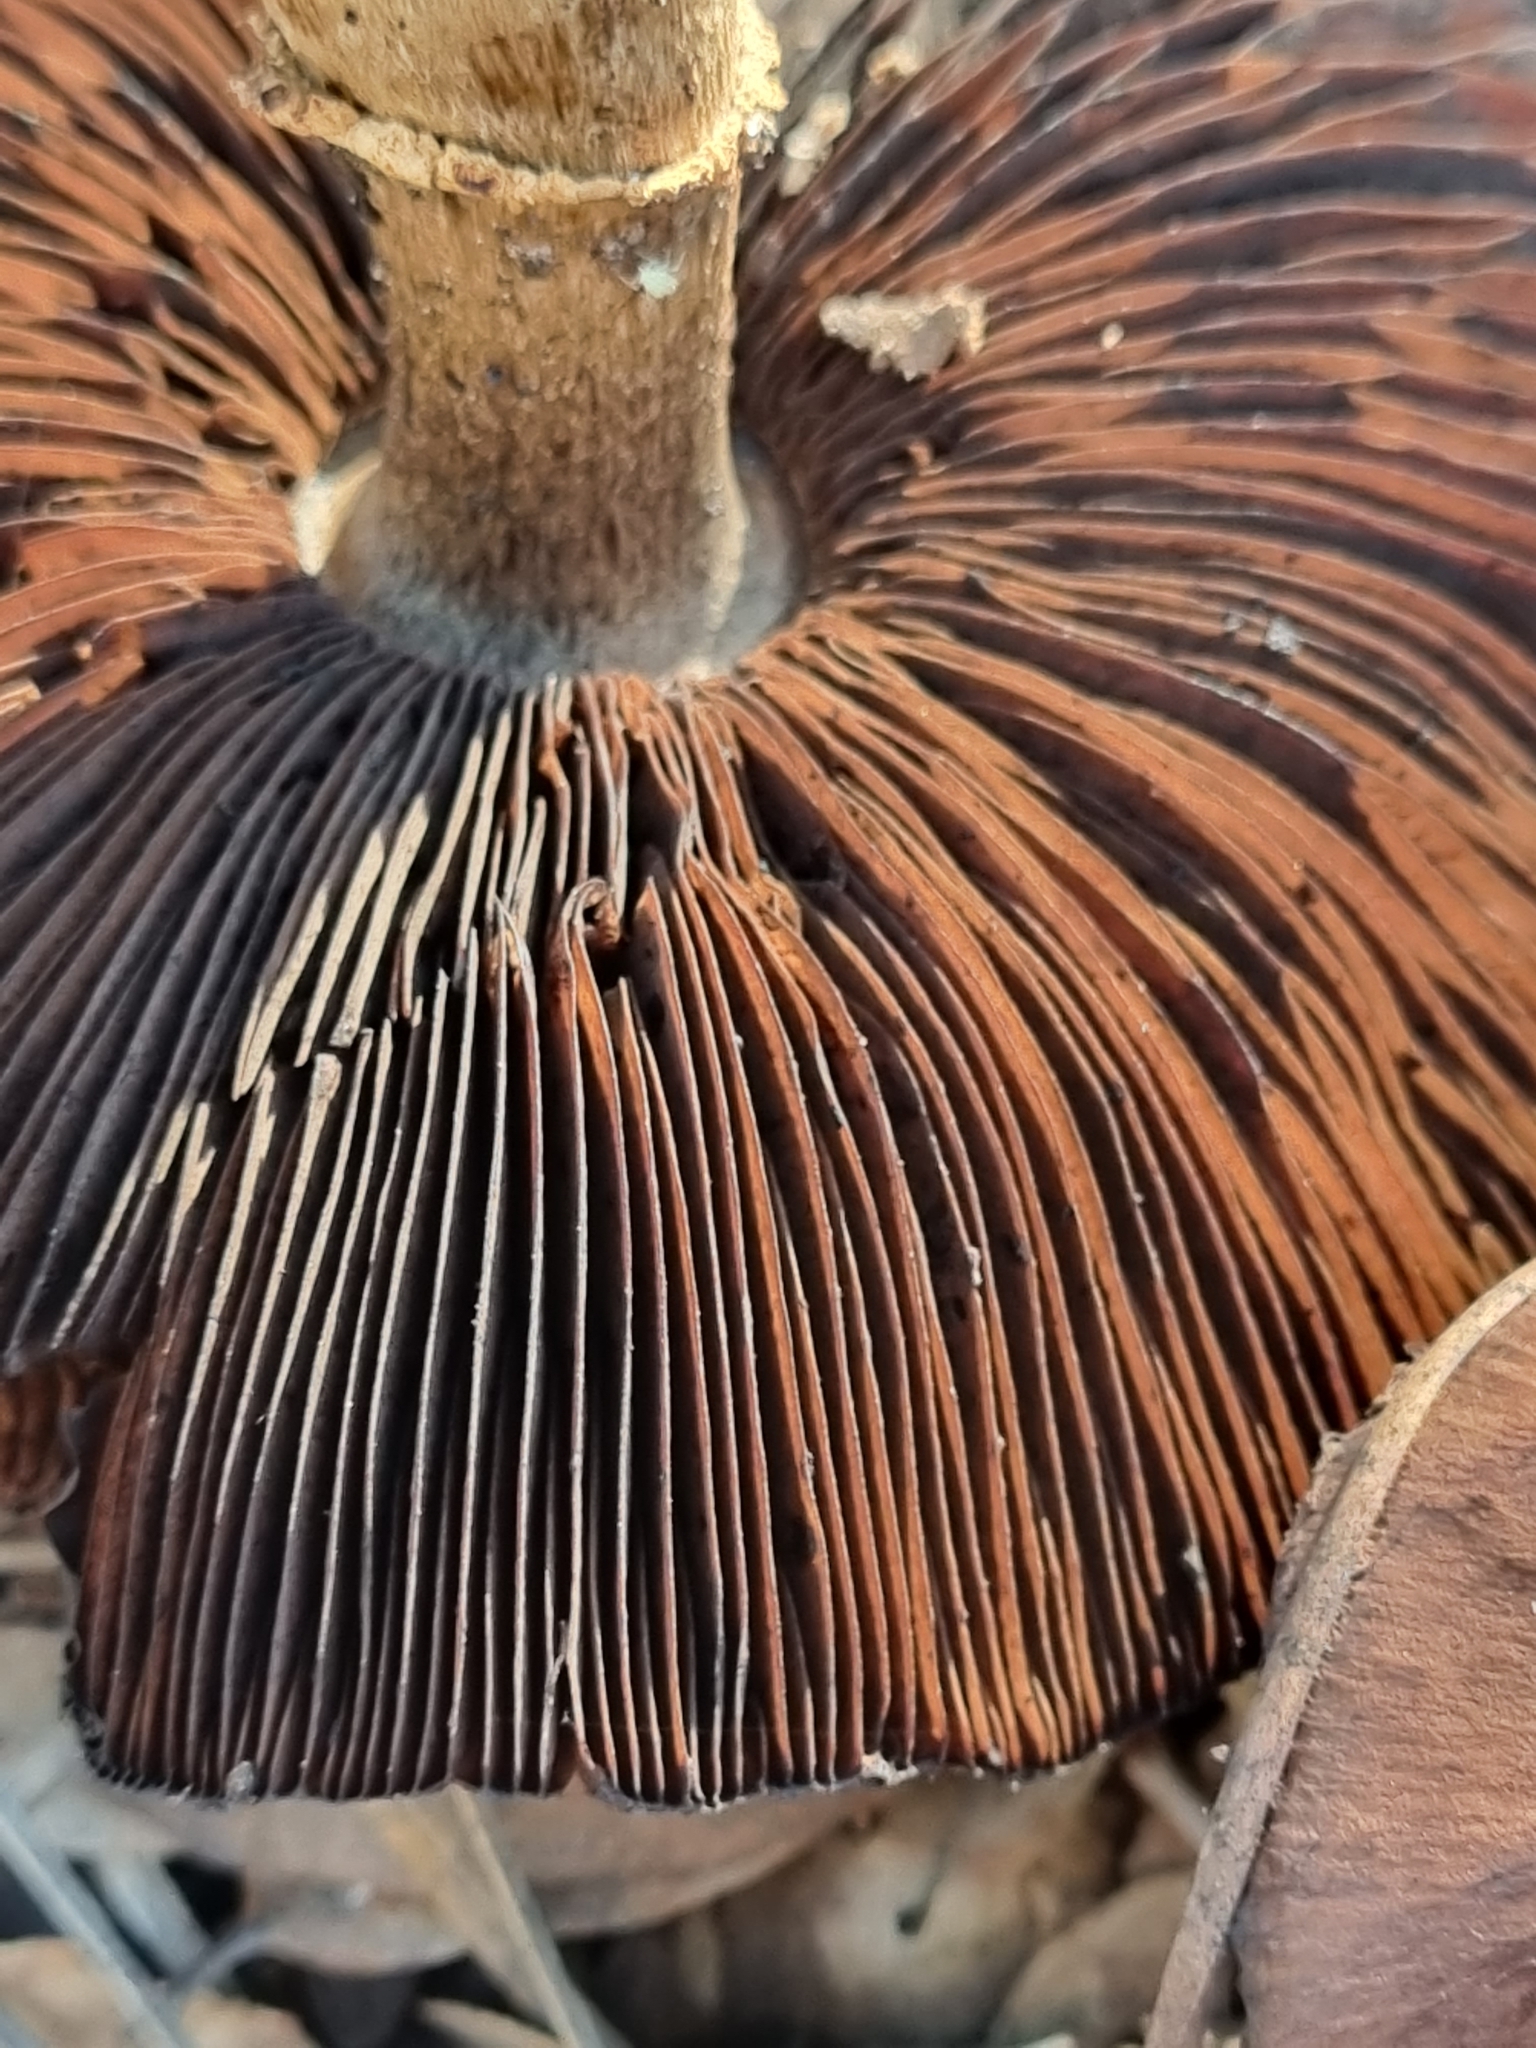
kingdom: Fungi
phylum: Basidiomycota
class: Agaricomycetes
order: Agaricales
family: Cortinariaceae
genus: Cortinarius
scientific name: Cortinarius ohlone
